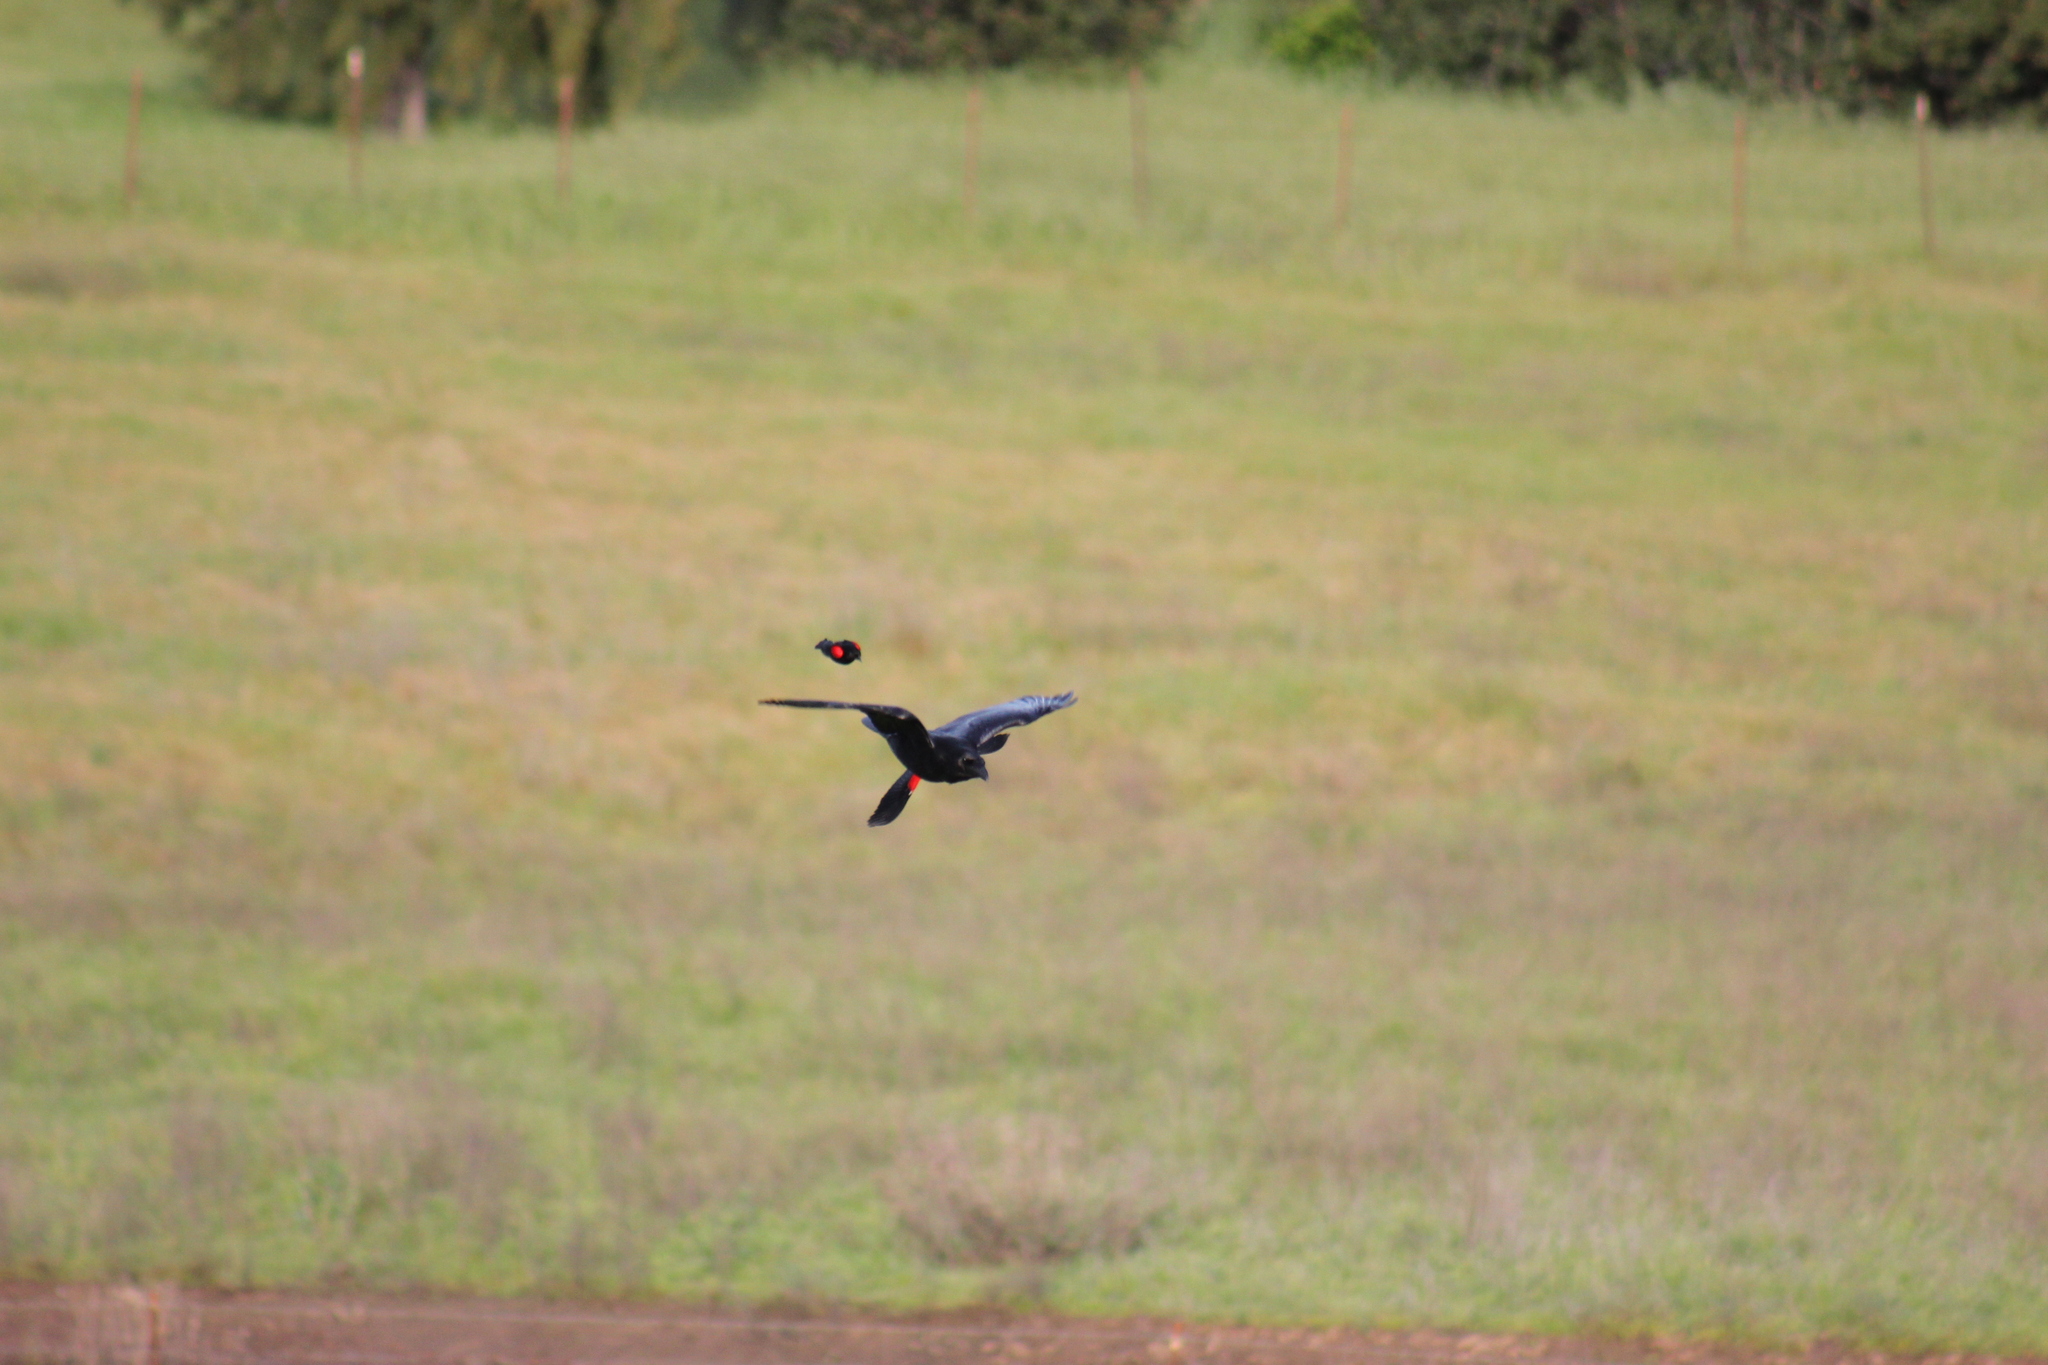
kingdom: Animalia
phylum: Chordata
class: Aves
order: Passeriformes
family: Corvidae
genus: Corvus
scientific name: Corvus corax
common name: Common raven
